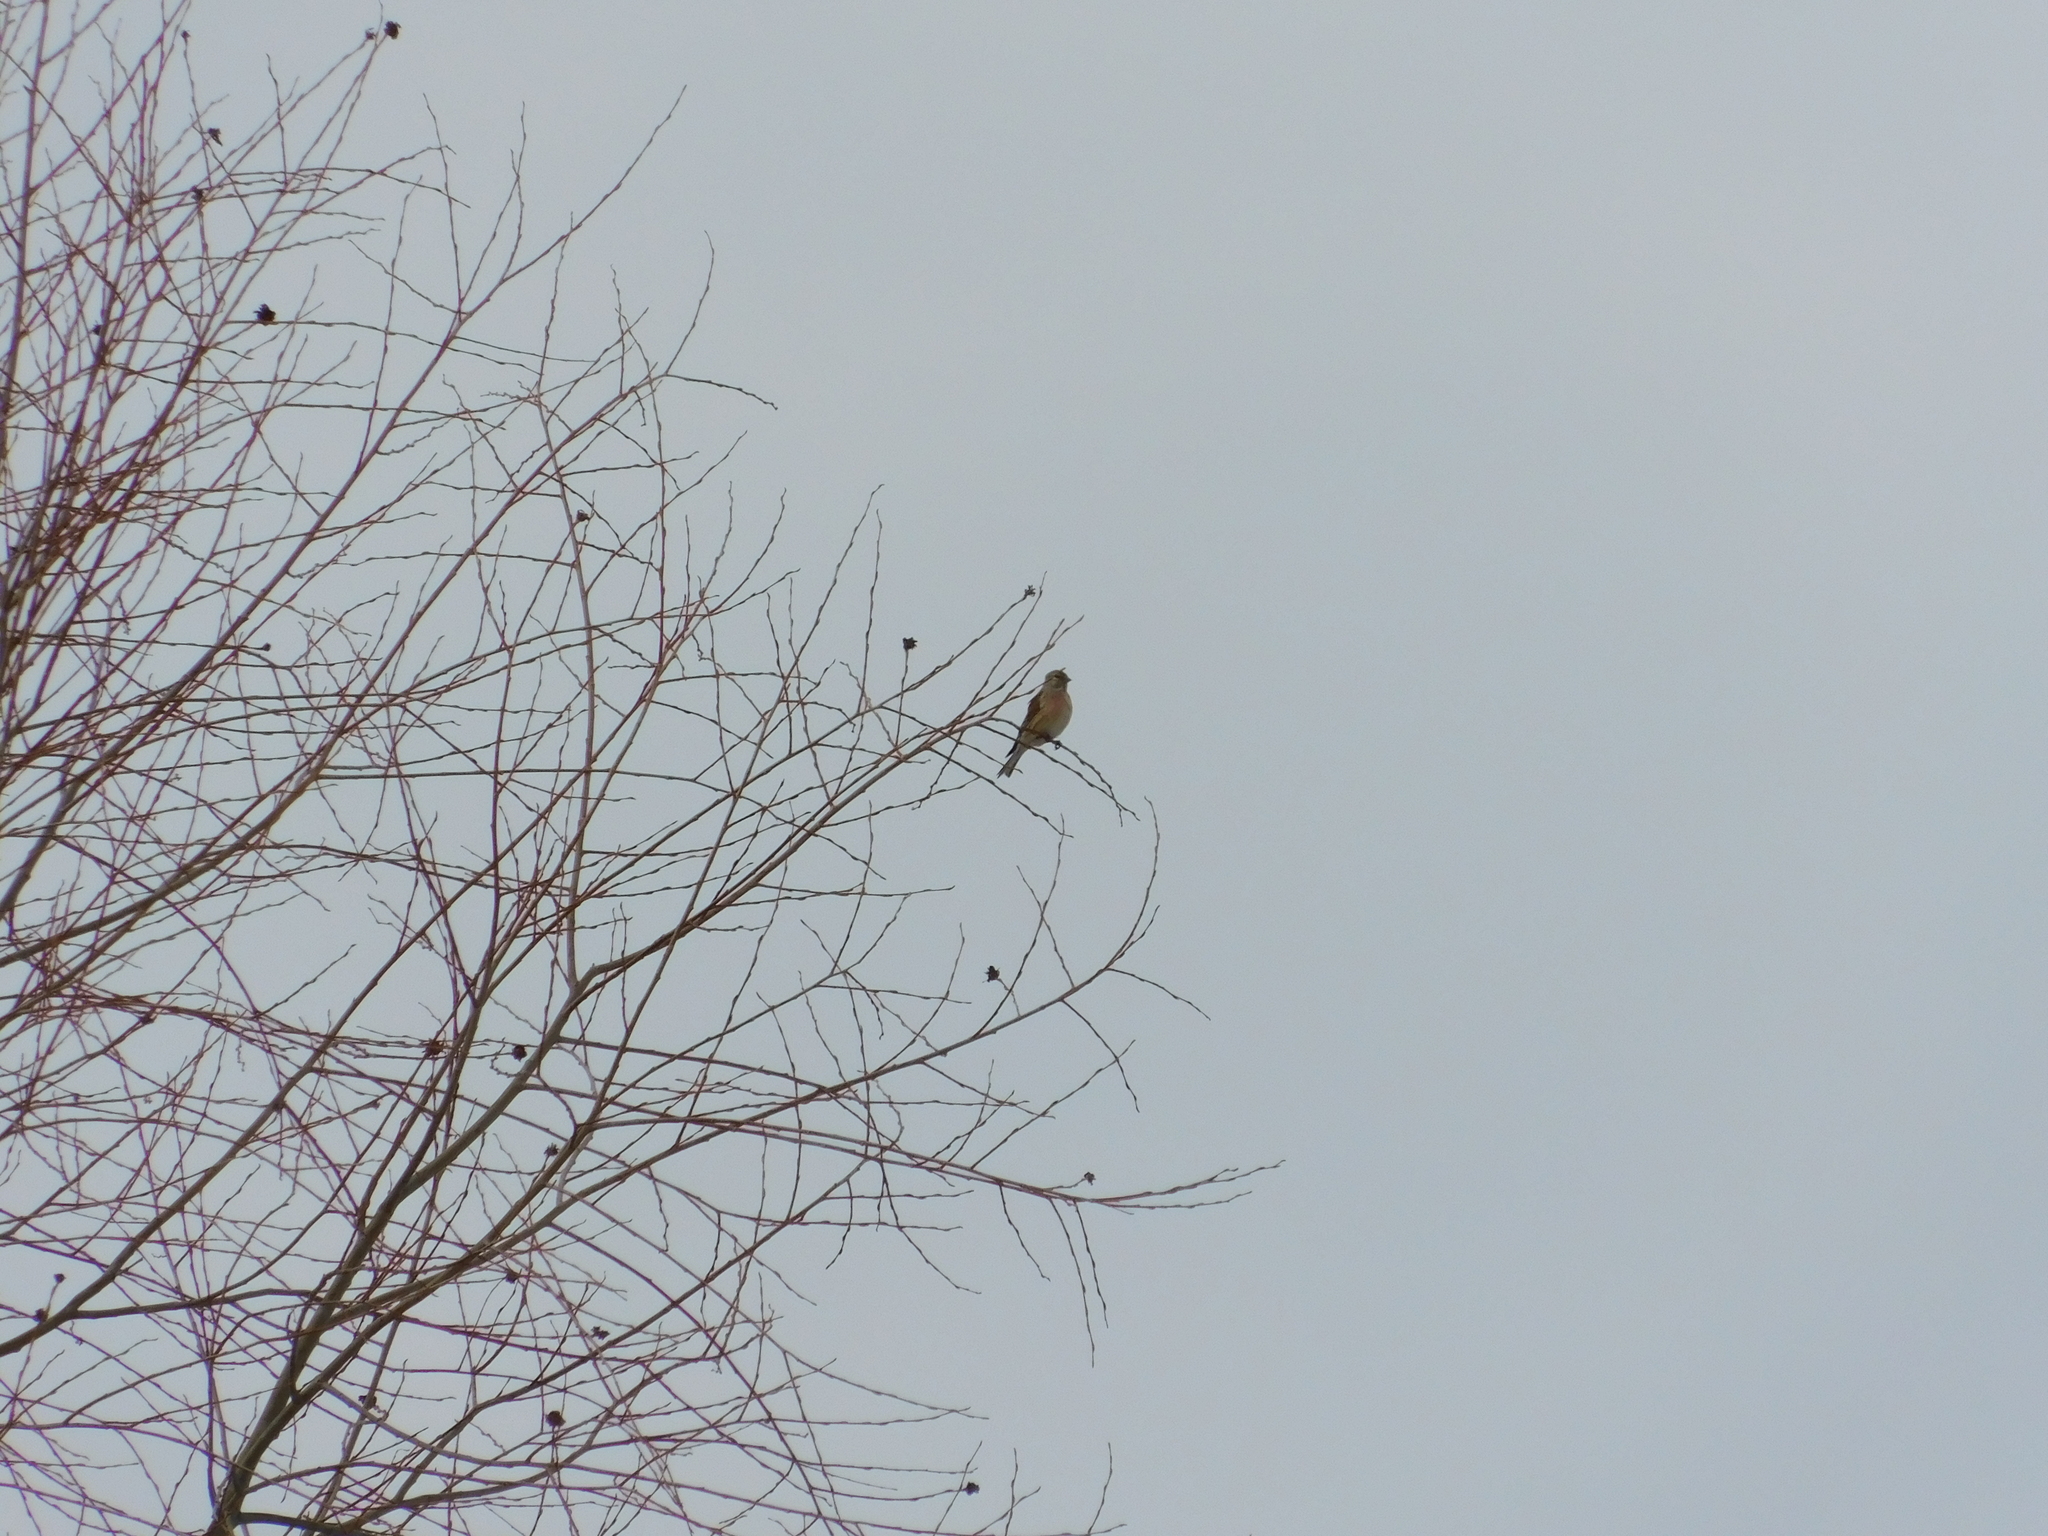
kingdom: Animalia
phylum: Chordata
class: Aves
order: Passeriformes
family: Fringillidae
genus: Linaria
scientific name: Linaria cannabina
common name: Common linnet
